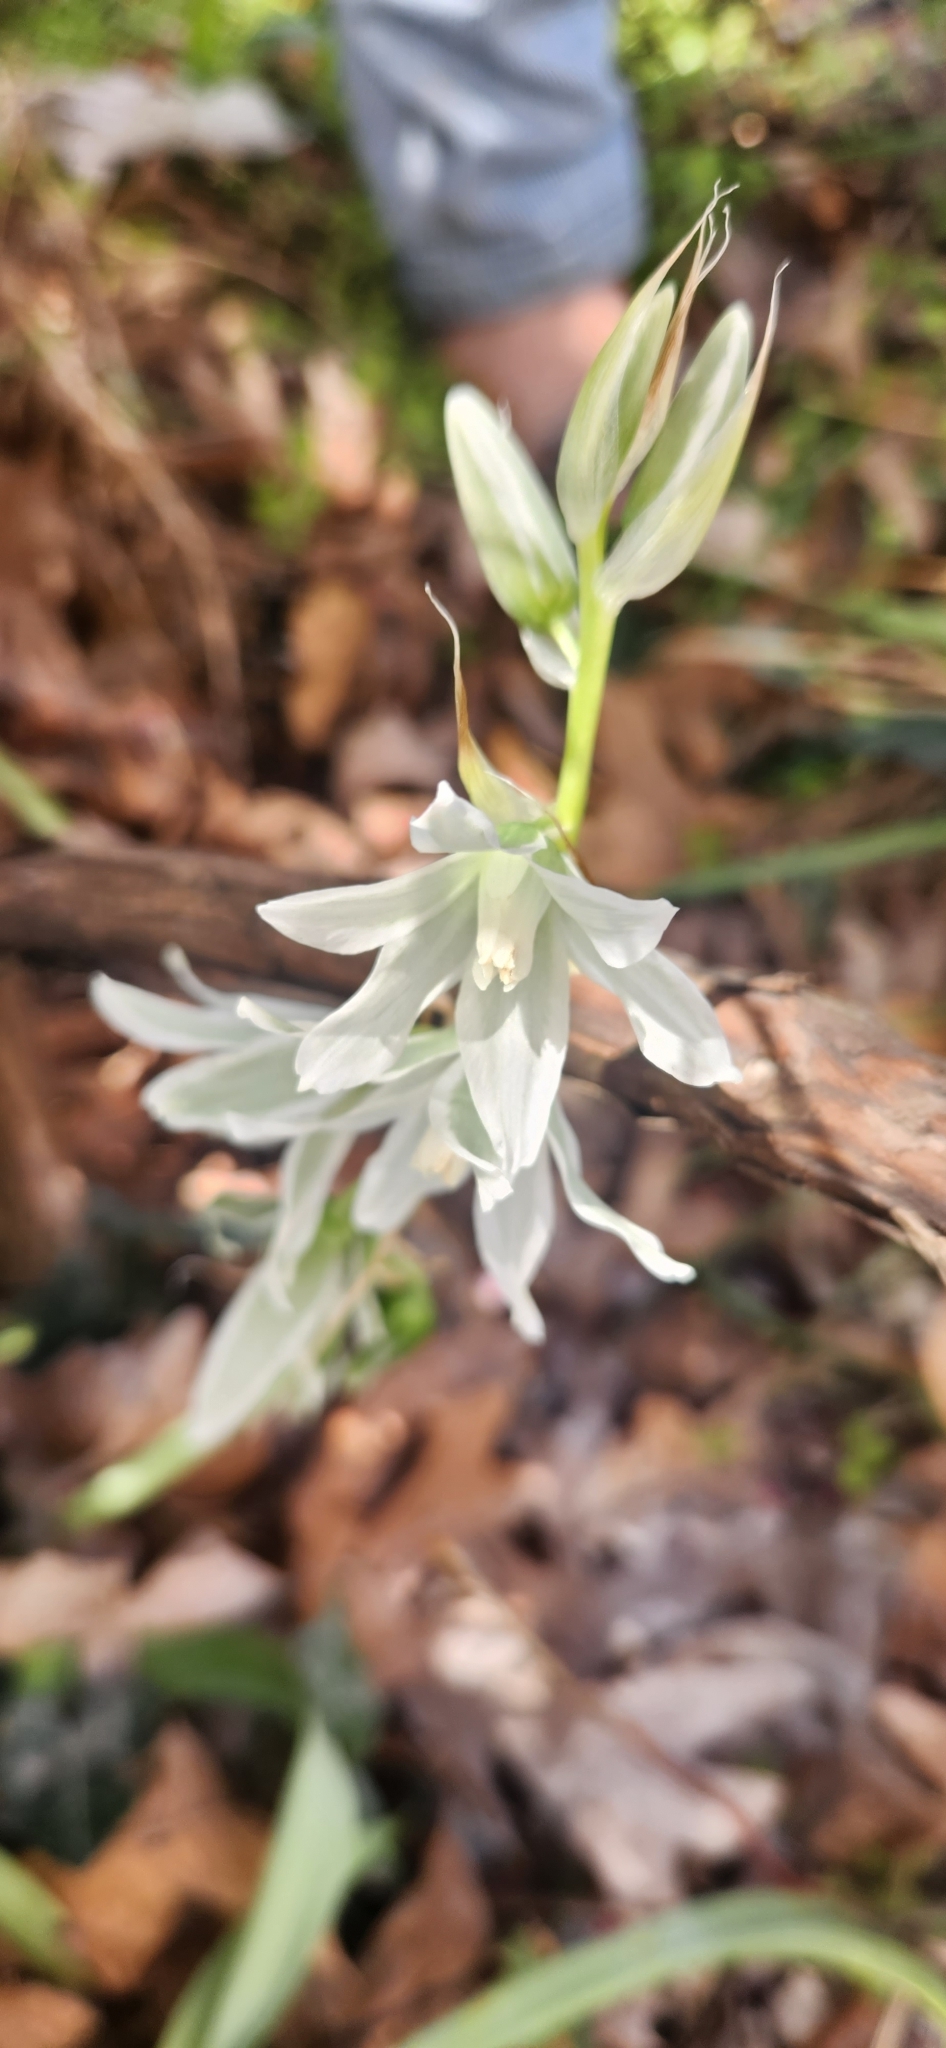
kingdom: Plantae
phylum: Tracheophyta
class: Liliopsida
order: Asparagales
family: Asparagaceae
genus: Ornithogalum
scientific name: Ornithogalum nutans
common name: Drooping star-of-bethlehem
